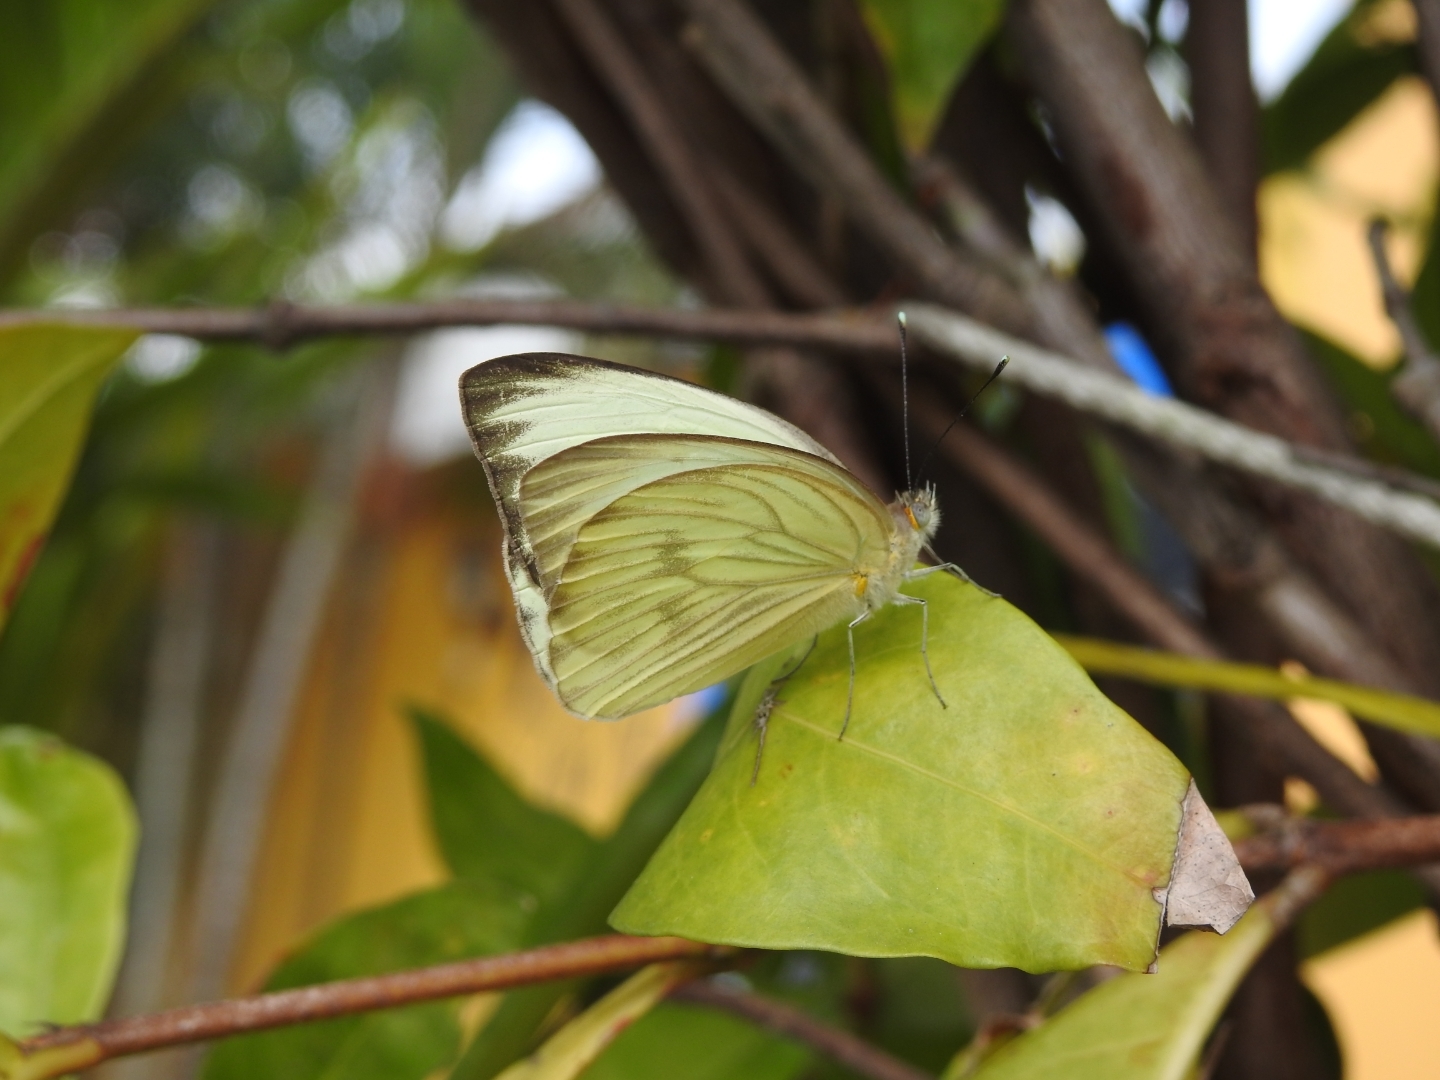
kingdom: Animalia
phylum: Arthropoda
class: Insecta
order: Lepidoptera
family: Pieridae
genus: Ascia
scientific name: Ascia monuste
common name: Great southern white
